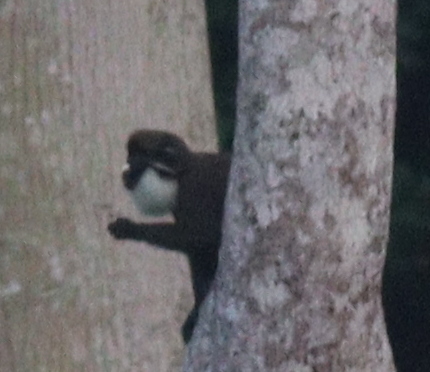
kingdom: Animalia
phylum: Chordata
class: Mammalia
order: Primates
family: Cercopithecidae
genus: Cercopithecus
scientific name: Cercopithecus petaurista
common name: Lesser spot-nosed monkey
